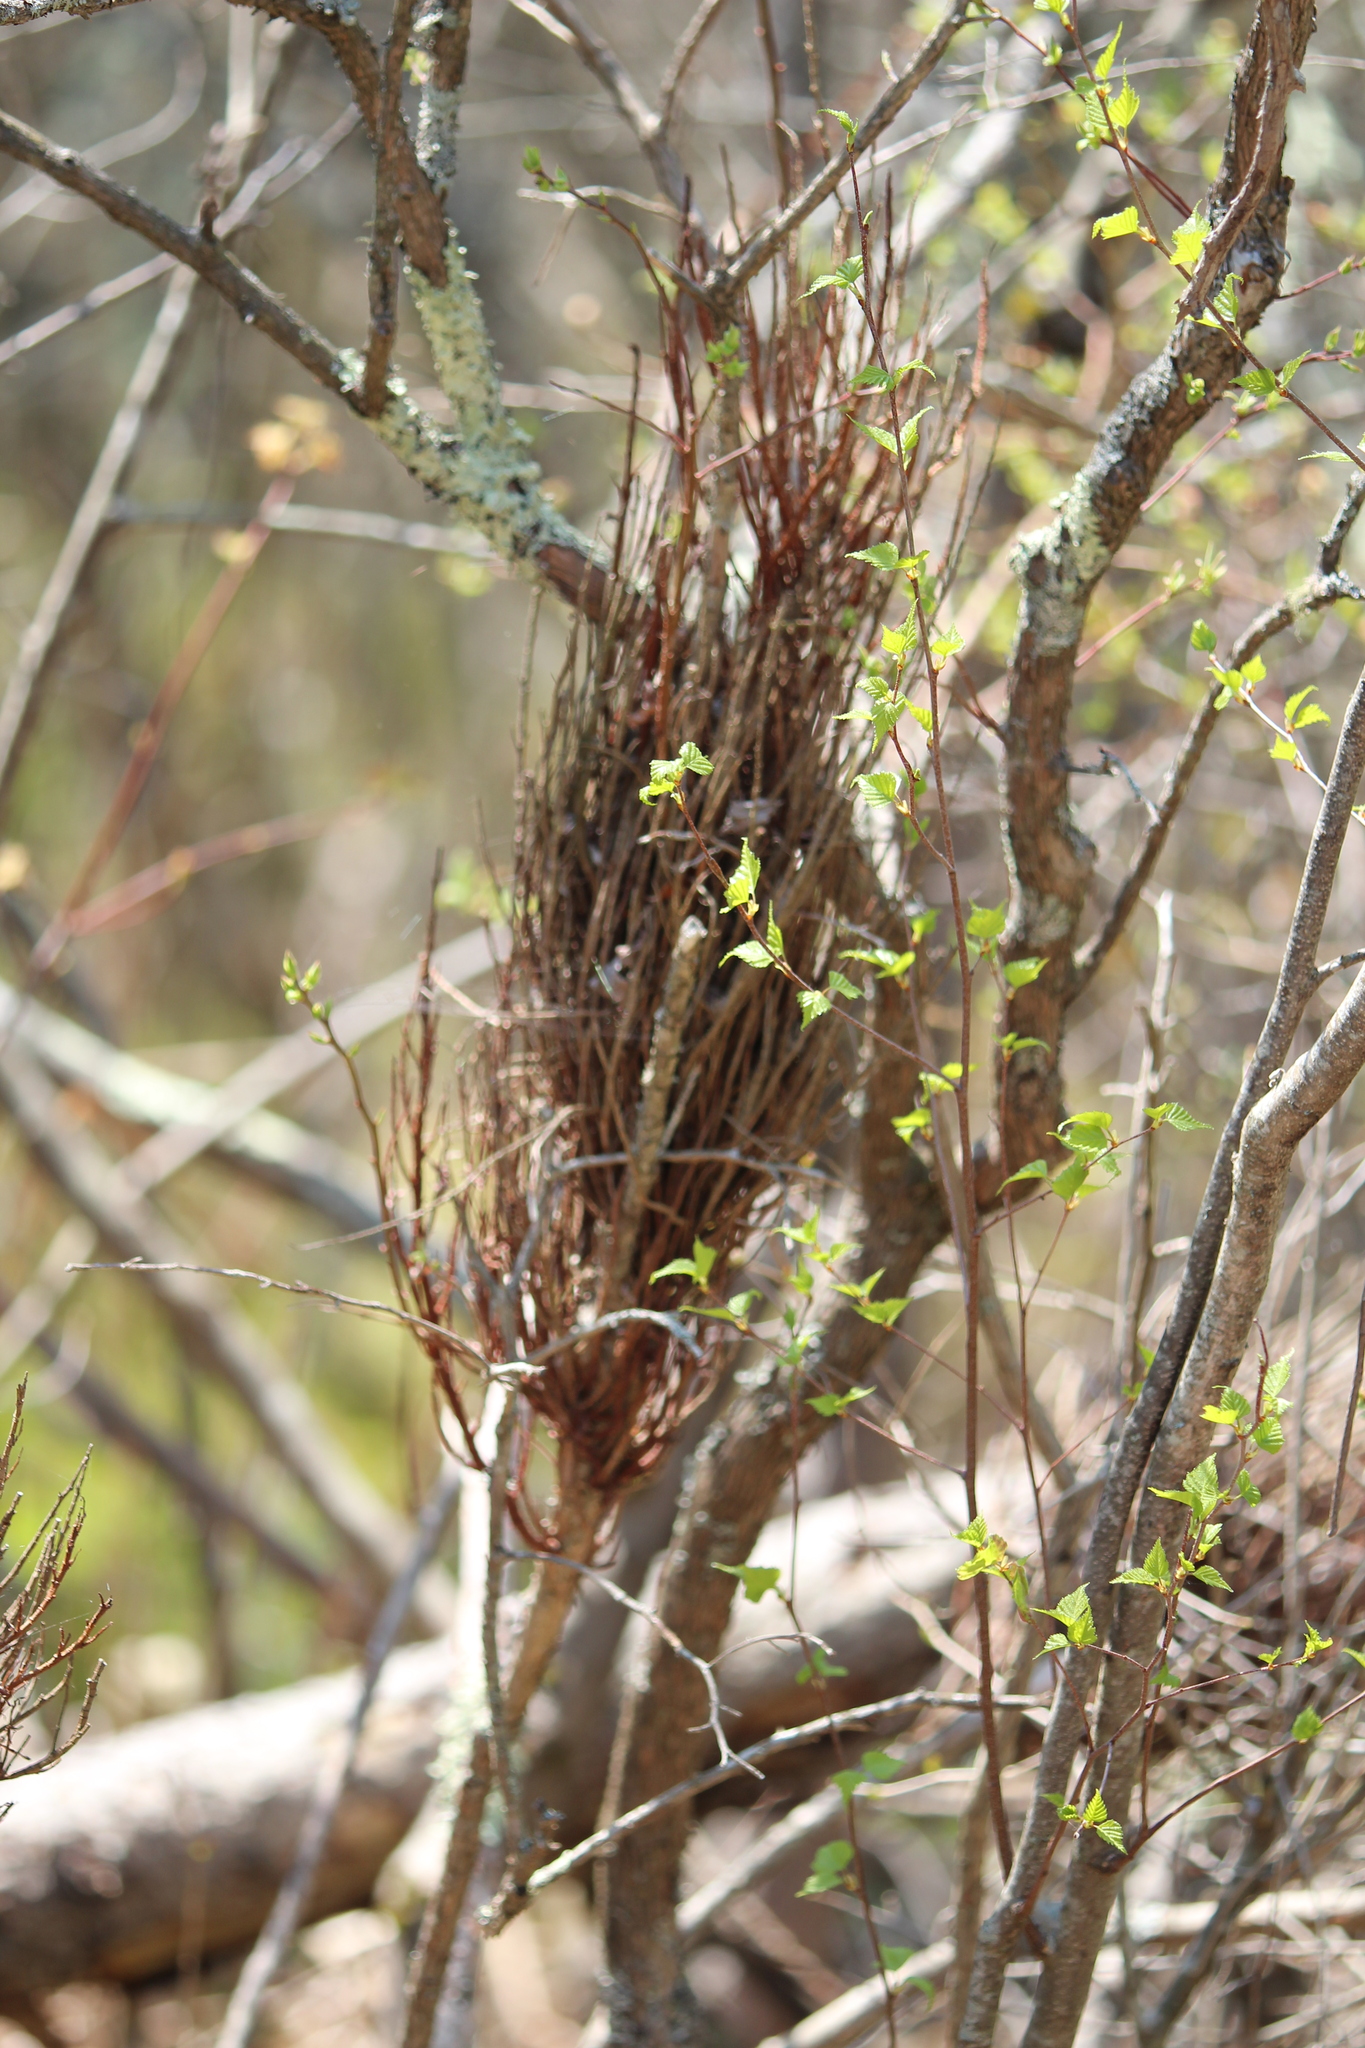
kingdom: Fungi
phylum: Basidiomycota
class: Pucciniomycetes
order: Pucciniales
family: Pucciniastraceae
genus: Calyptospora
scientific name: Calyptospora columnaris
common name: Huckleberry broom rust fungus
